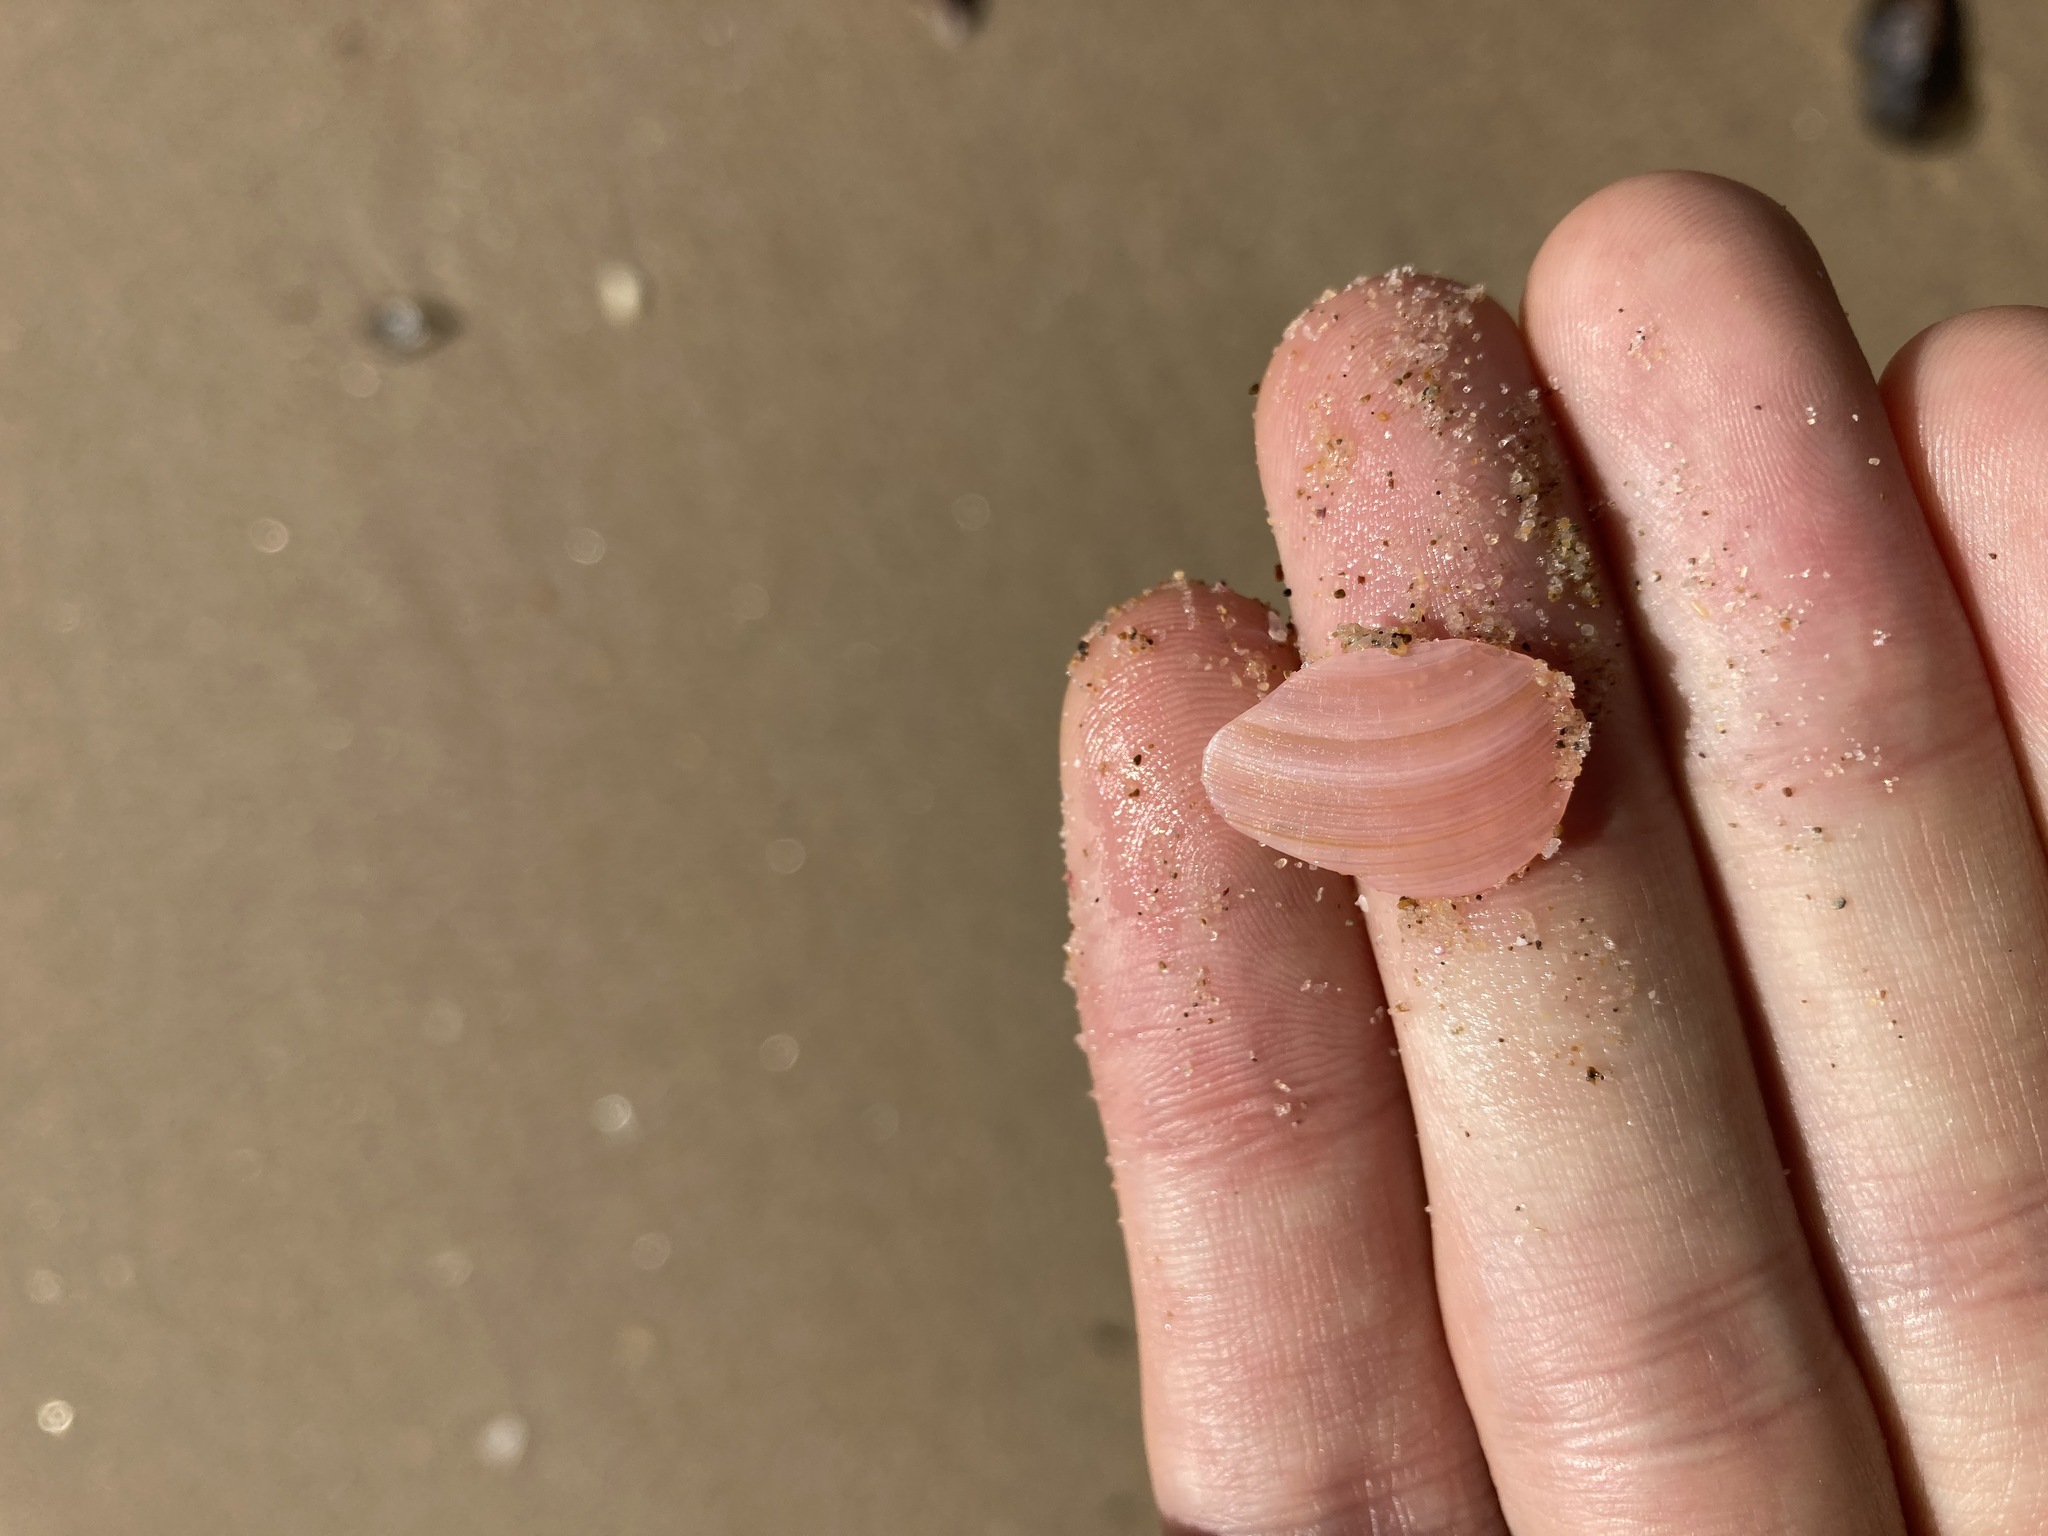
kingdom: Animalia
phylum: Mollusca
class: Bivalvia
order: Cardiida
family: Tellinidae
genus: Tellinota
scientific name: Tellinota albinella
